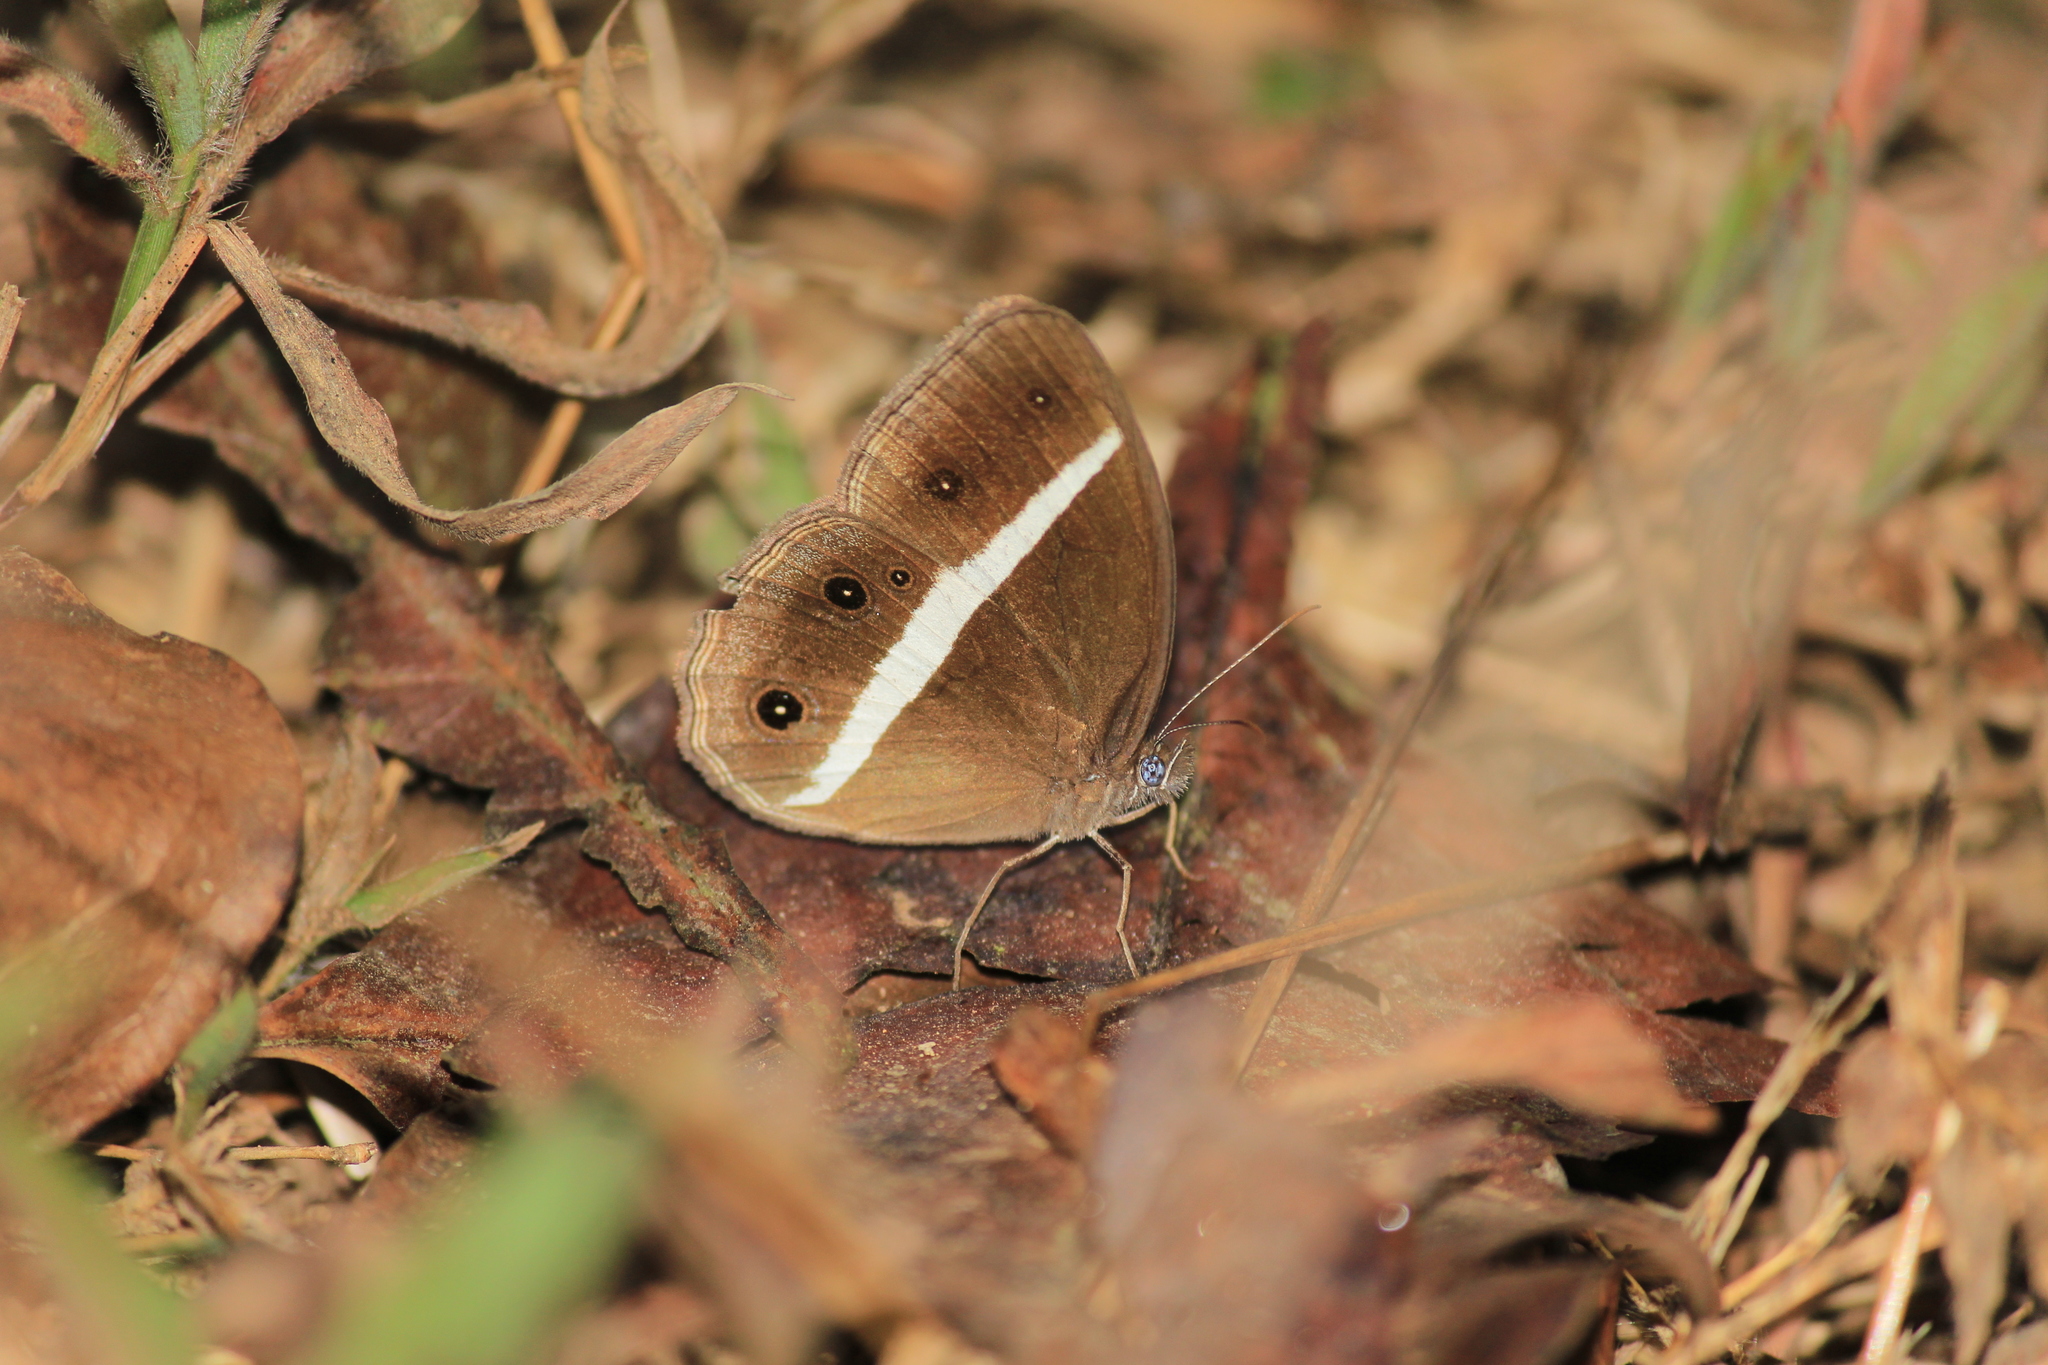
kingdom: Animalia
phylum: Arthropoda
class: Insecta
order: Lepidoptera
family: Nymphalidae
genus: Orsotriaena
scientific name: Orsotriaena medus
